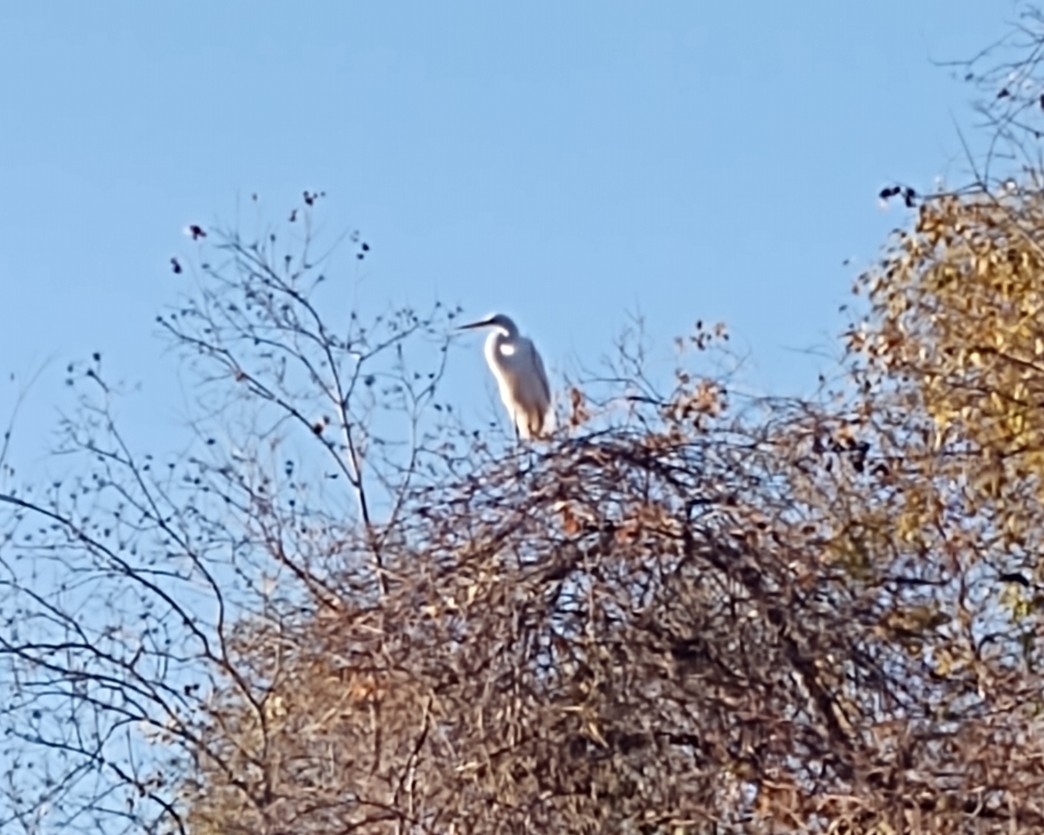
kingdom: Animalia
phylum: Chordata
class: Aves
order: Pelecaniformes
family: Ardeidae
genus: Ardea
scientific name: Ardea alba
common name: Great egret
